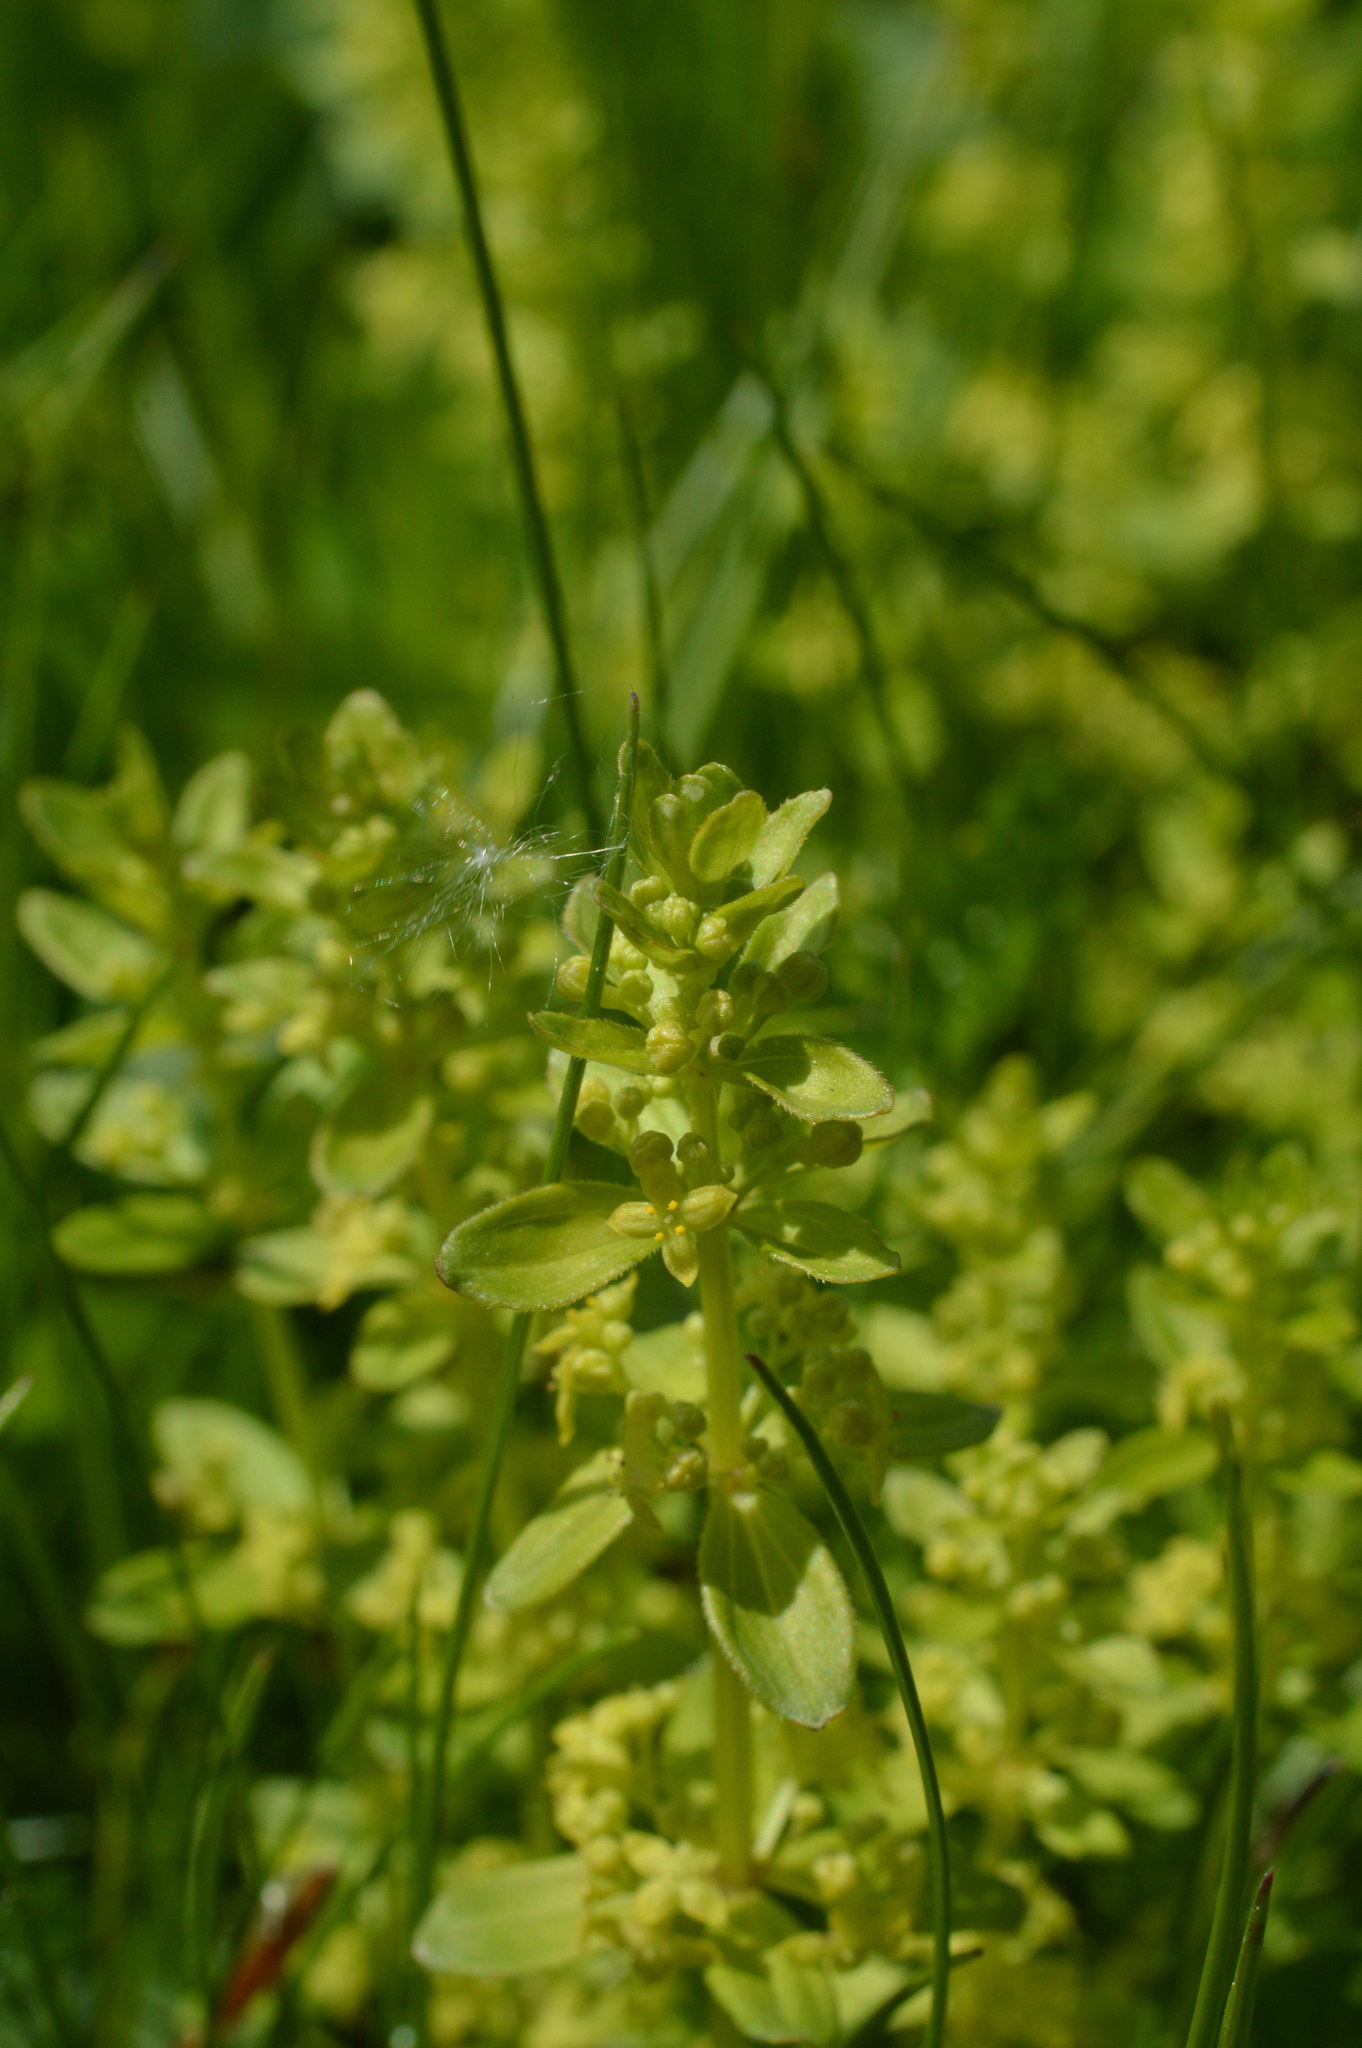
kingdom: Plantae
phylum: Tracheophyta
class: Magnoliopsida
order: Gentianales
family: Rubiaceae
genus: Cruciata
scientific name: Cruciata laevipes
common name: Crosswort
